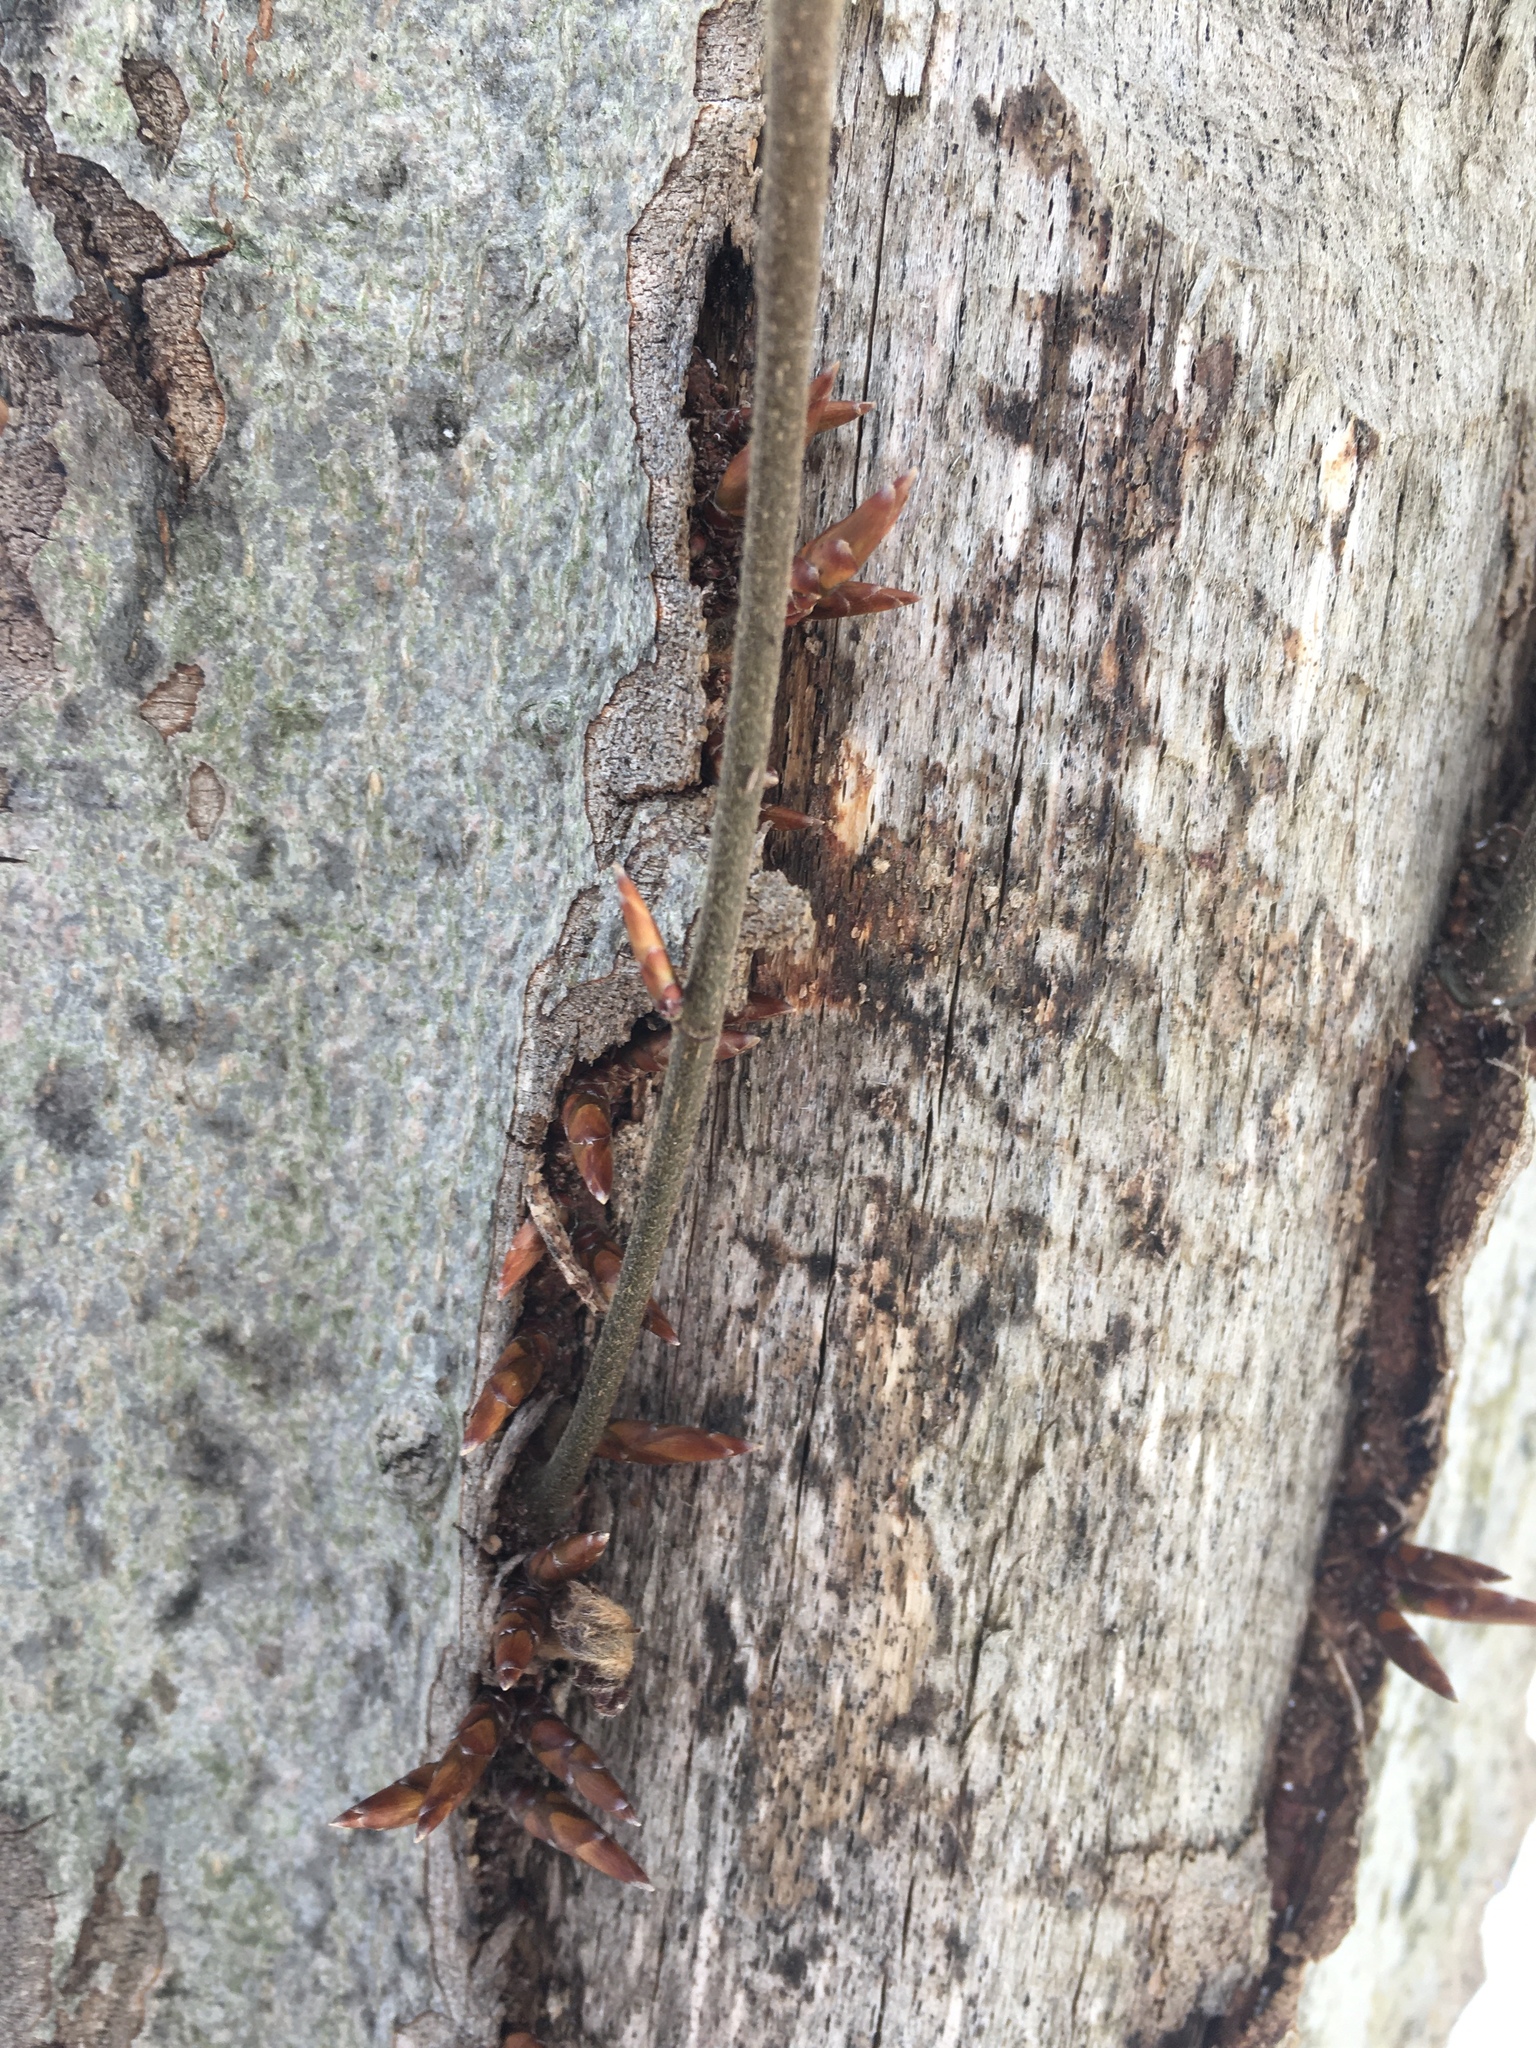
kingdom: Plantae
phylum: Tracheophyta
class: Magnoliopsida
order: Fagales
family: Fagaceae
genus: Fagus
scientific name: Fagus grandifolia
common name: American beech
